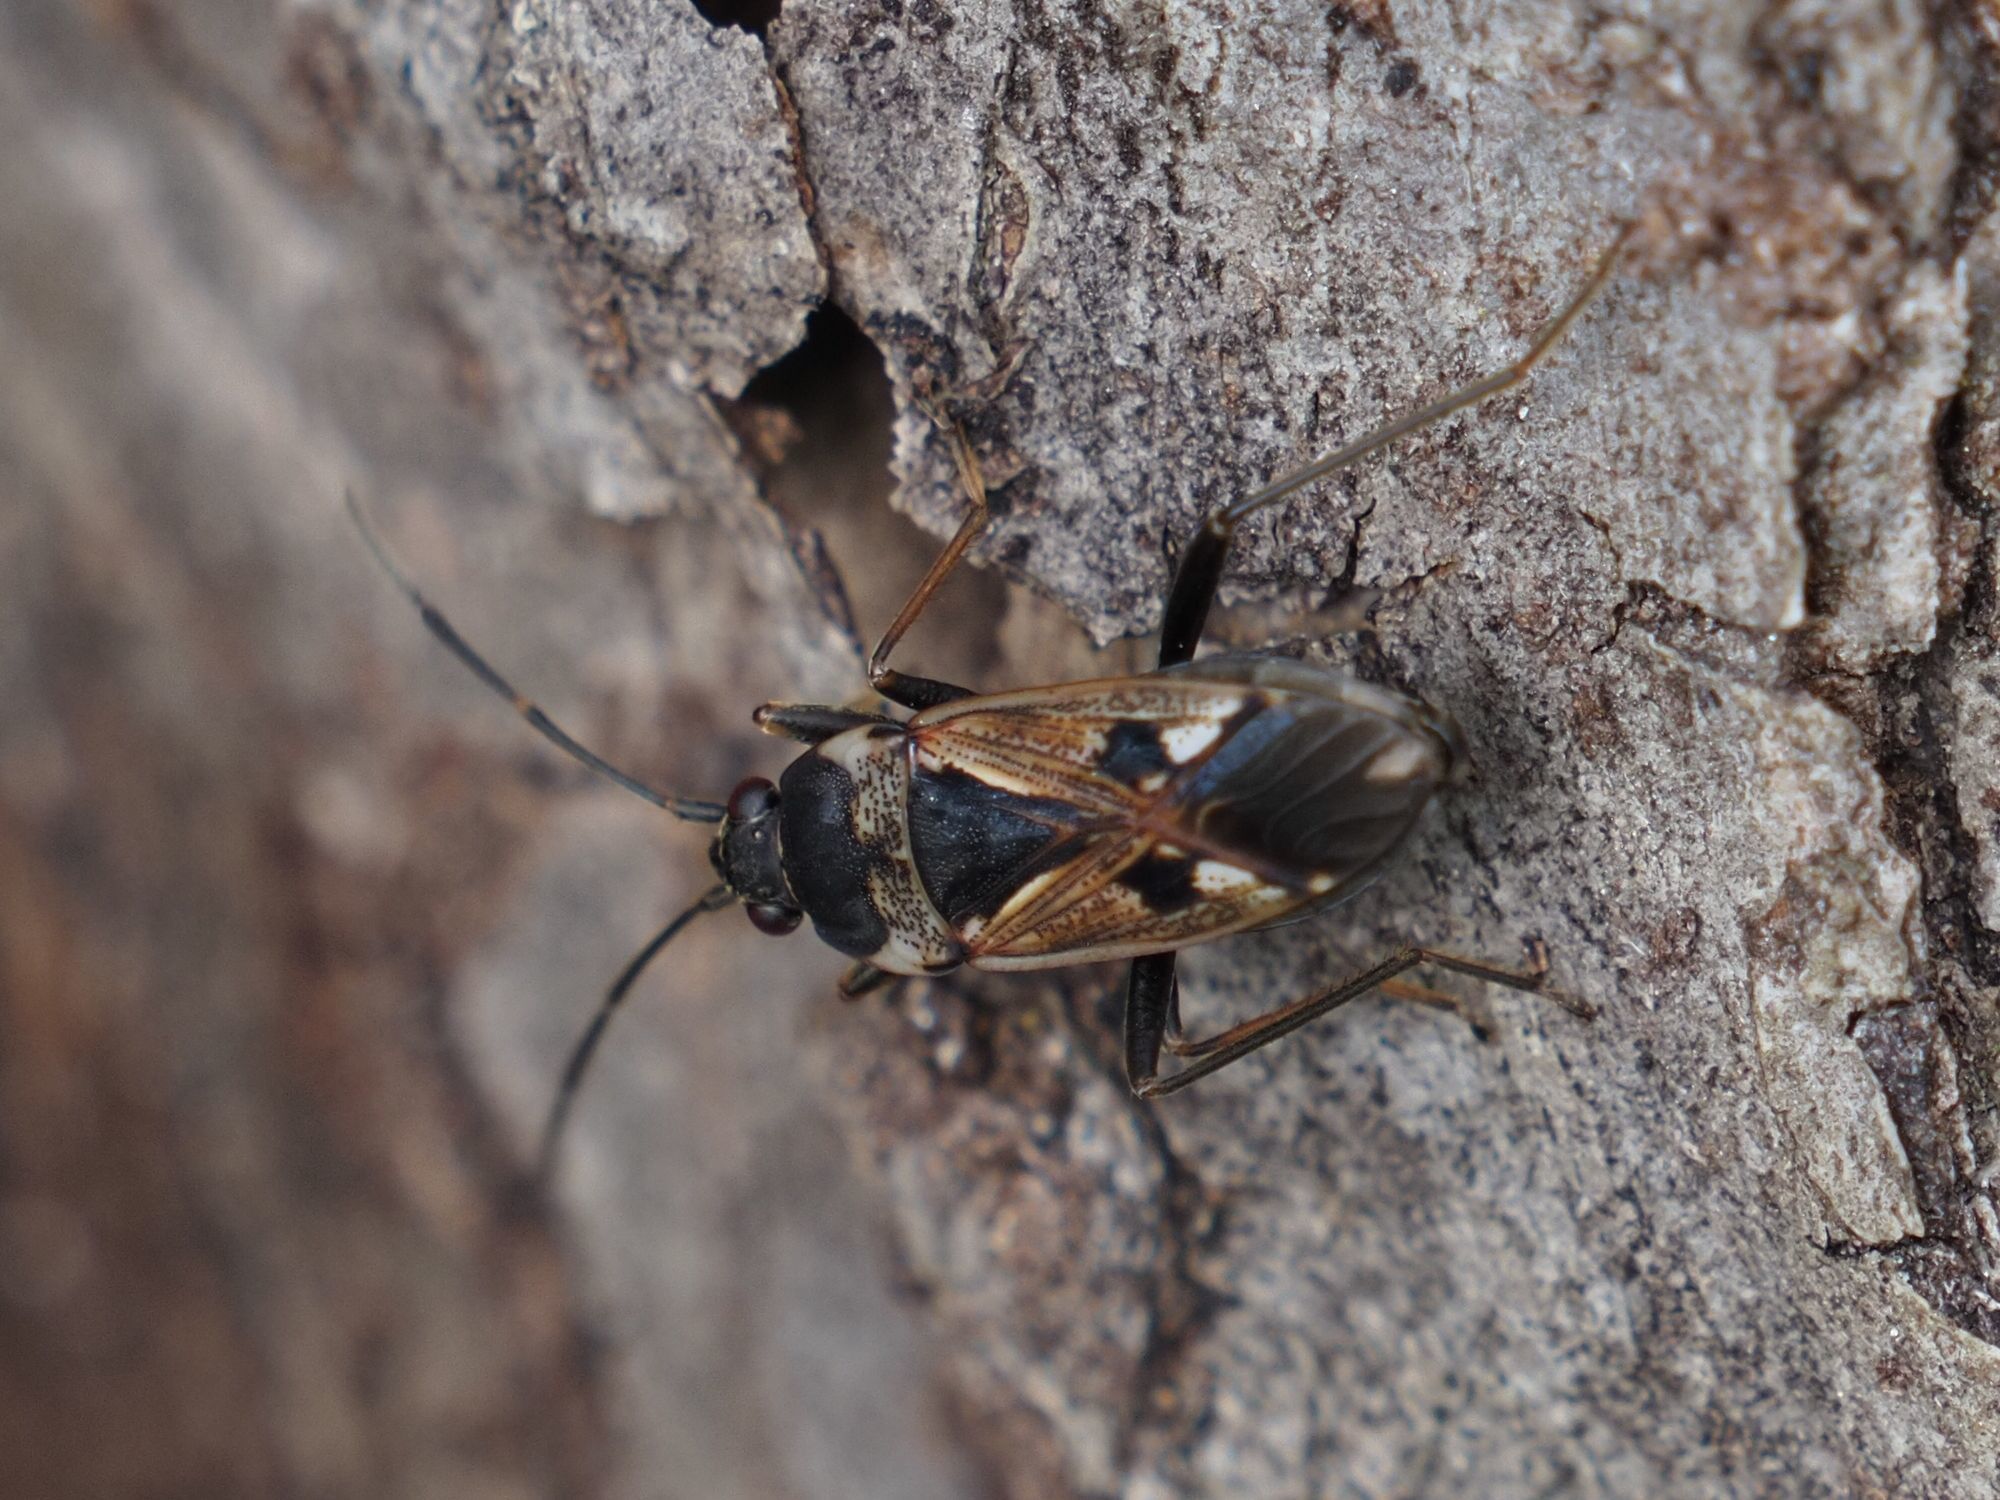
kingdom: Animalia
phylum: Arthropoda
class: Insecta
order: Hemiptera
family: Rhyparochromidae
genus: Rhyparochromus
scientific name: Rhyparochromus vulgaris
